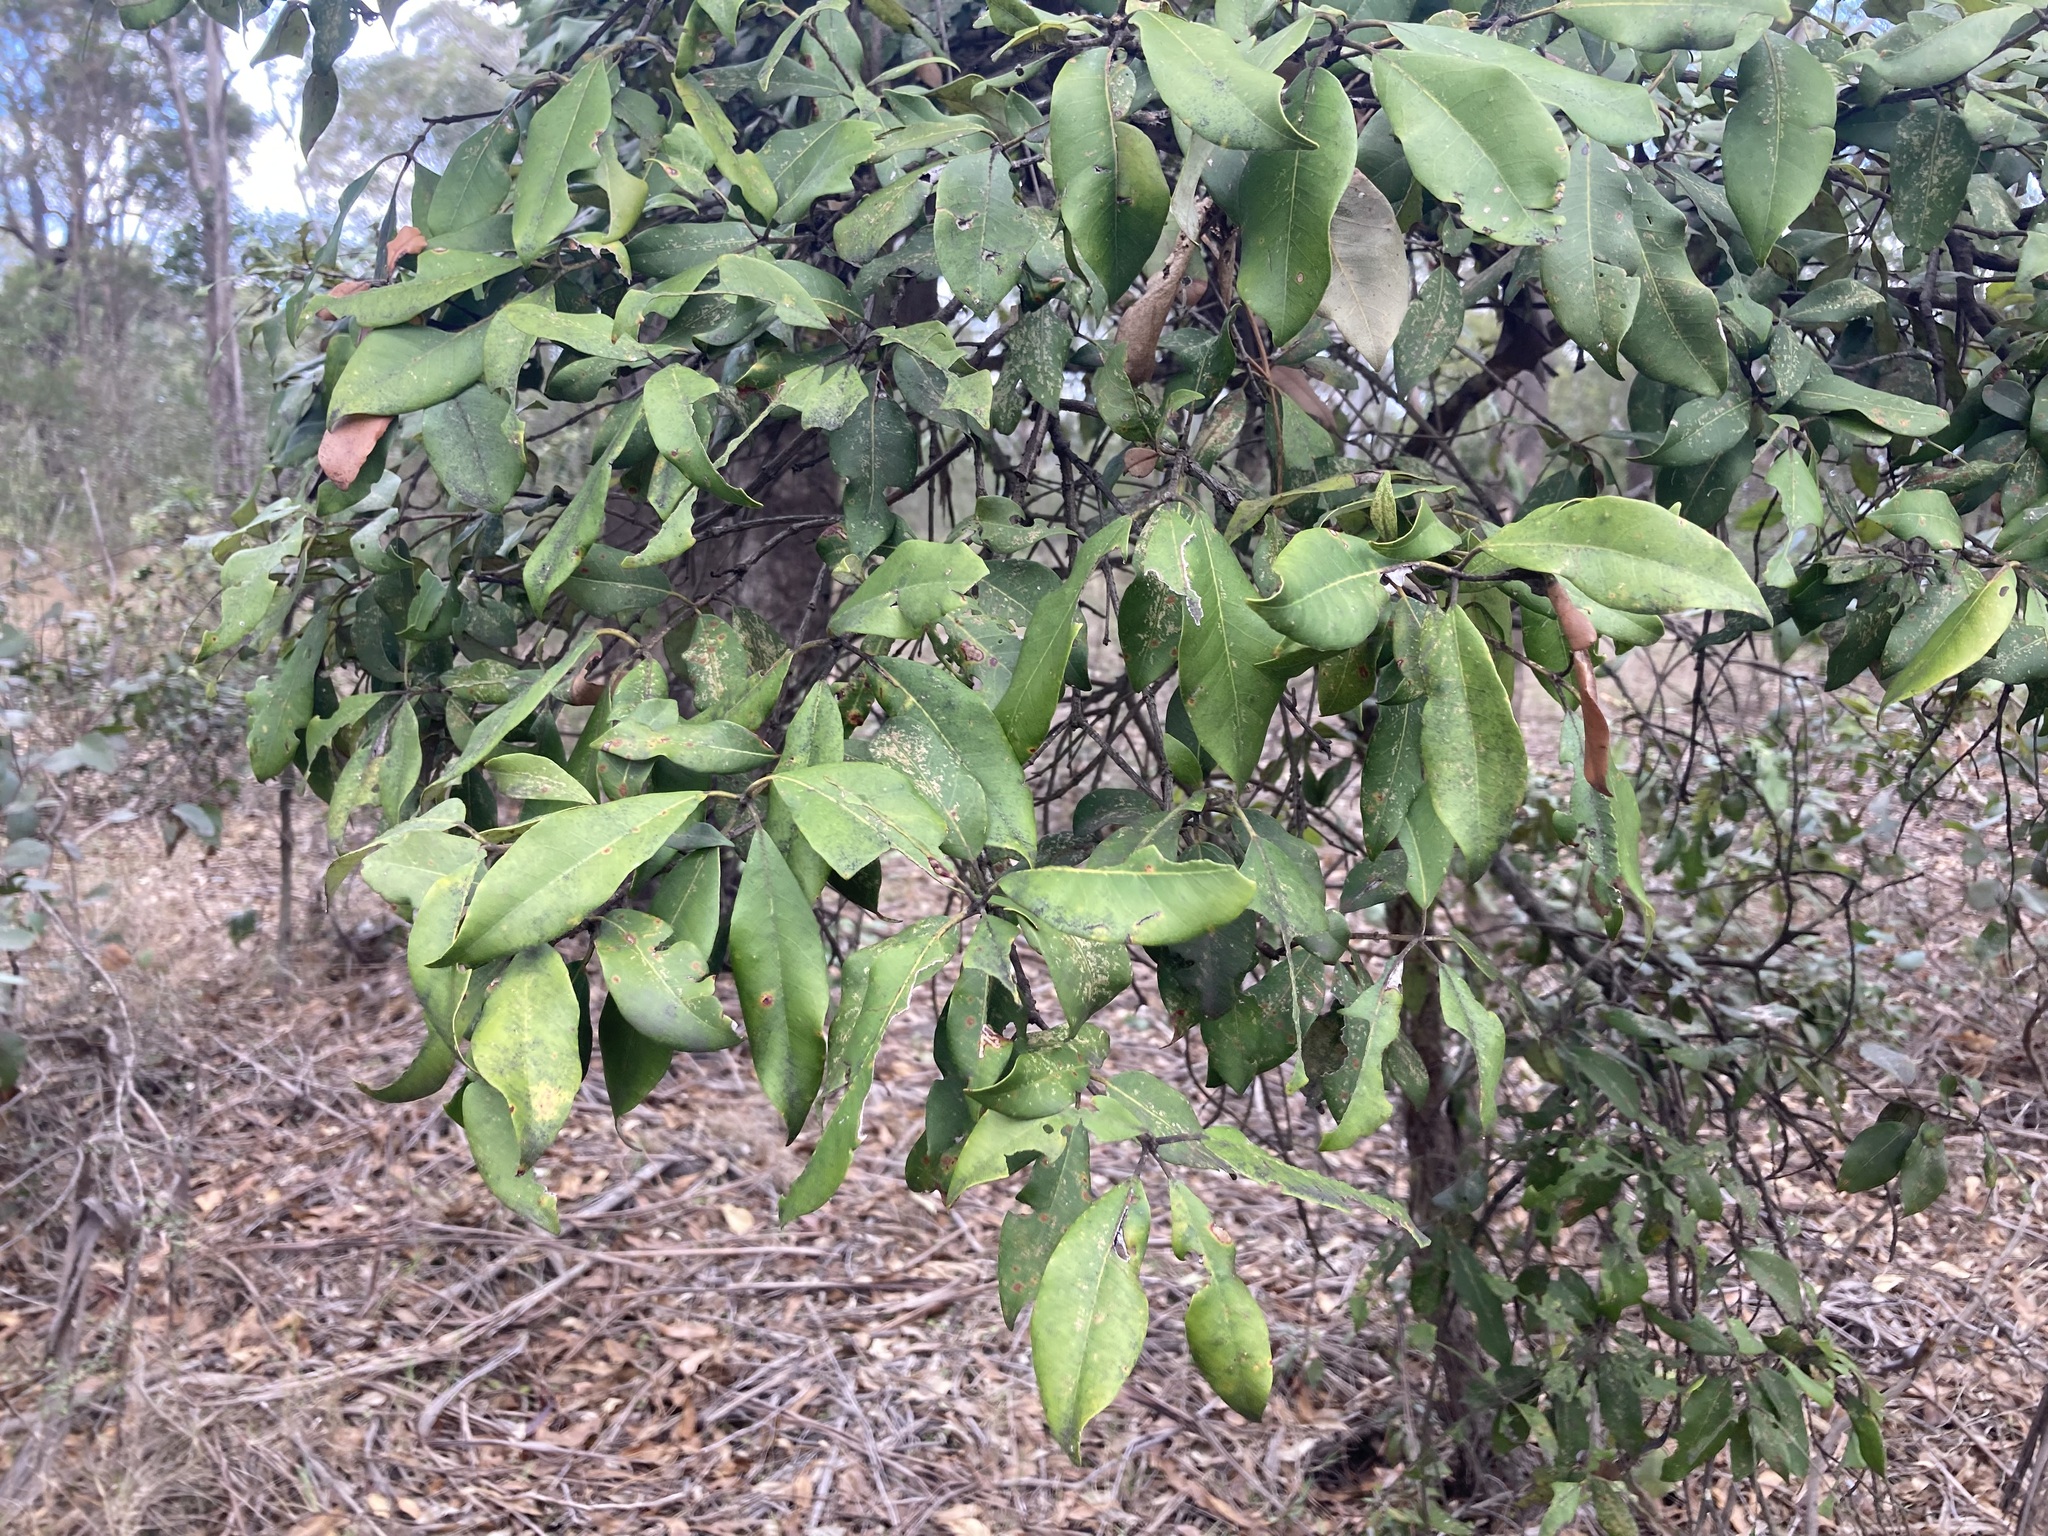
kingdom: Plantae
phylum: Tracheophyta
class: Magnoliopsida
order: Myrtales
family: Myrtaceae
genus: Syncarpia
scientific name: Syncarpia glomulifera
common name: Turpentine tree
